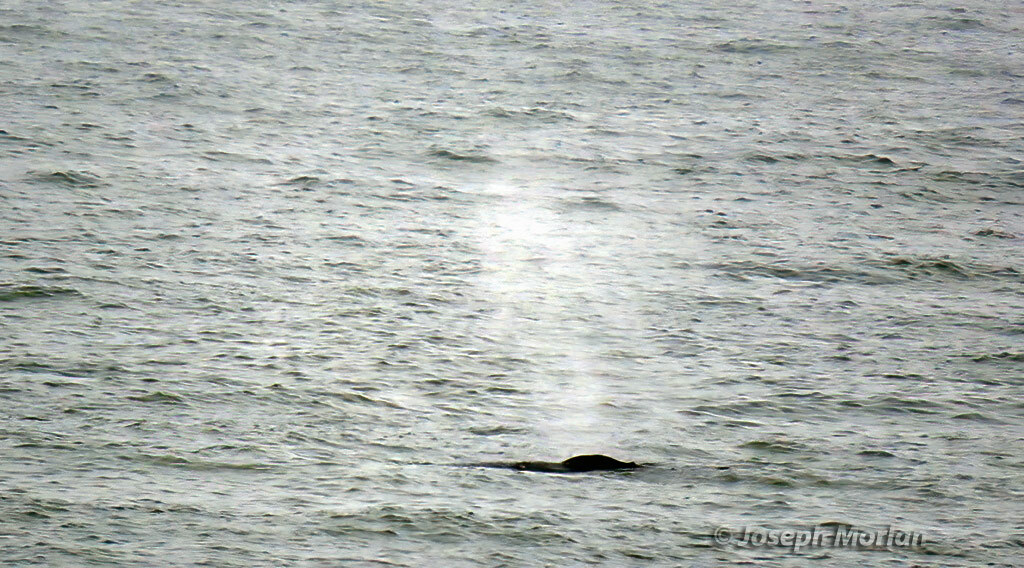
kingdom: Animalia
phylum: Chordata
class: Mammalia
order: Cetacea
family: Balaenopteridae
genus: Megaptera
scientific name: Megaptera novaeangliae
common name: Humpback whale
